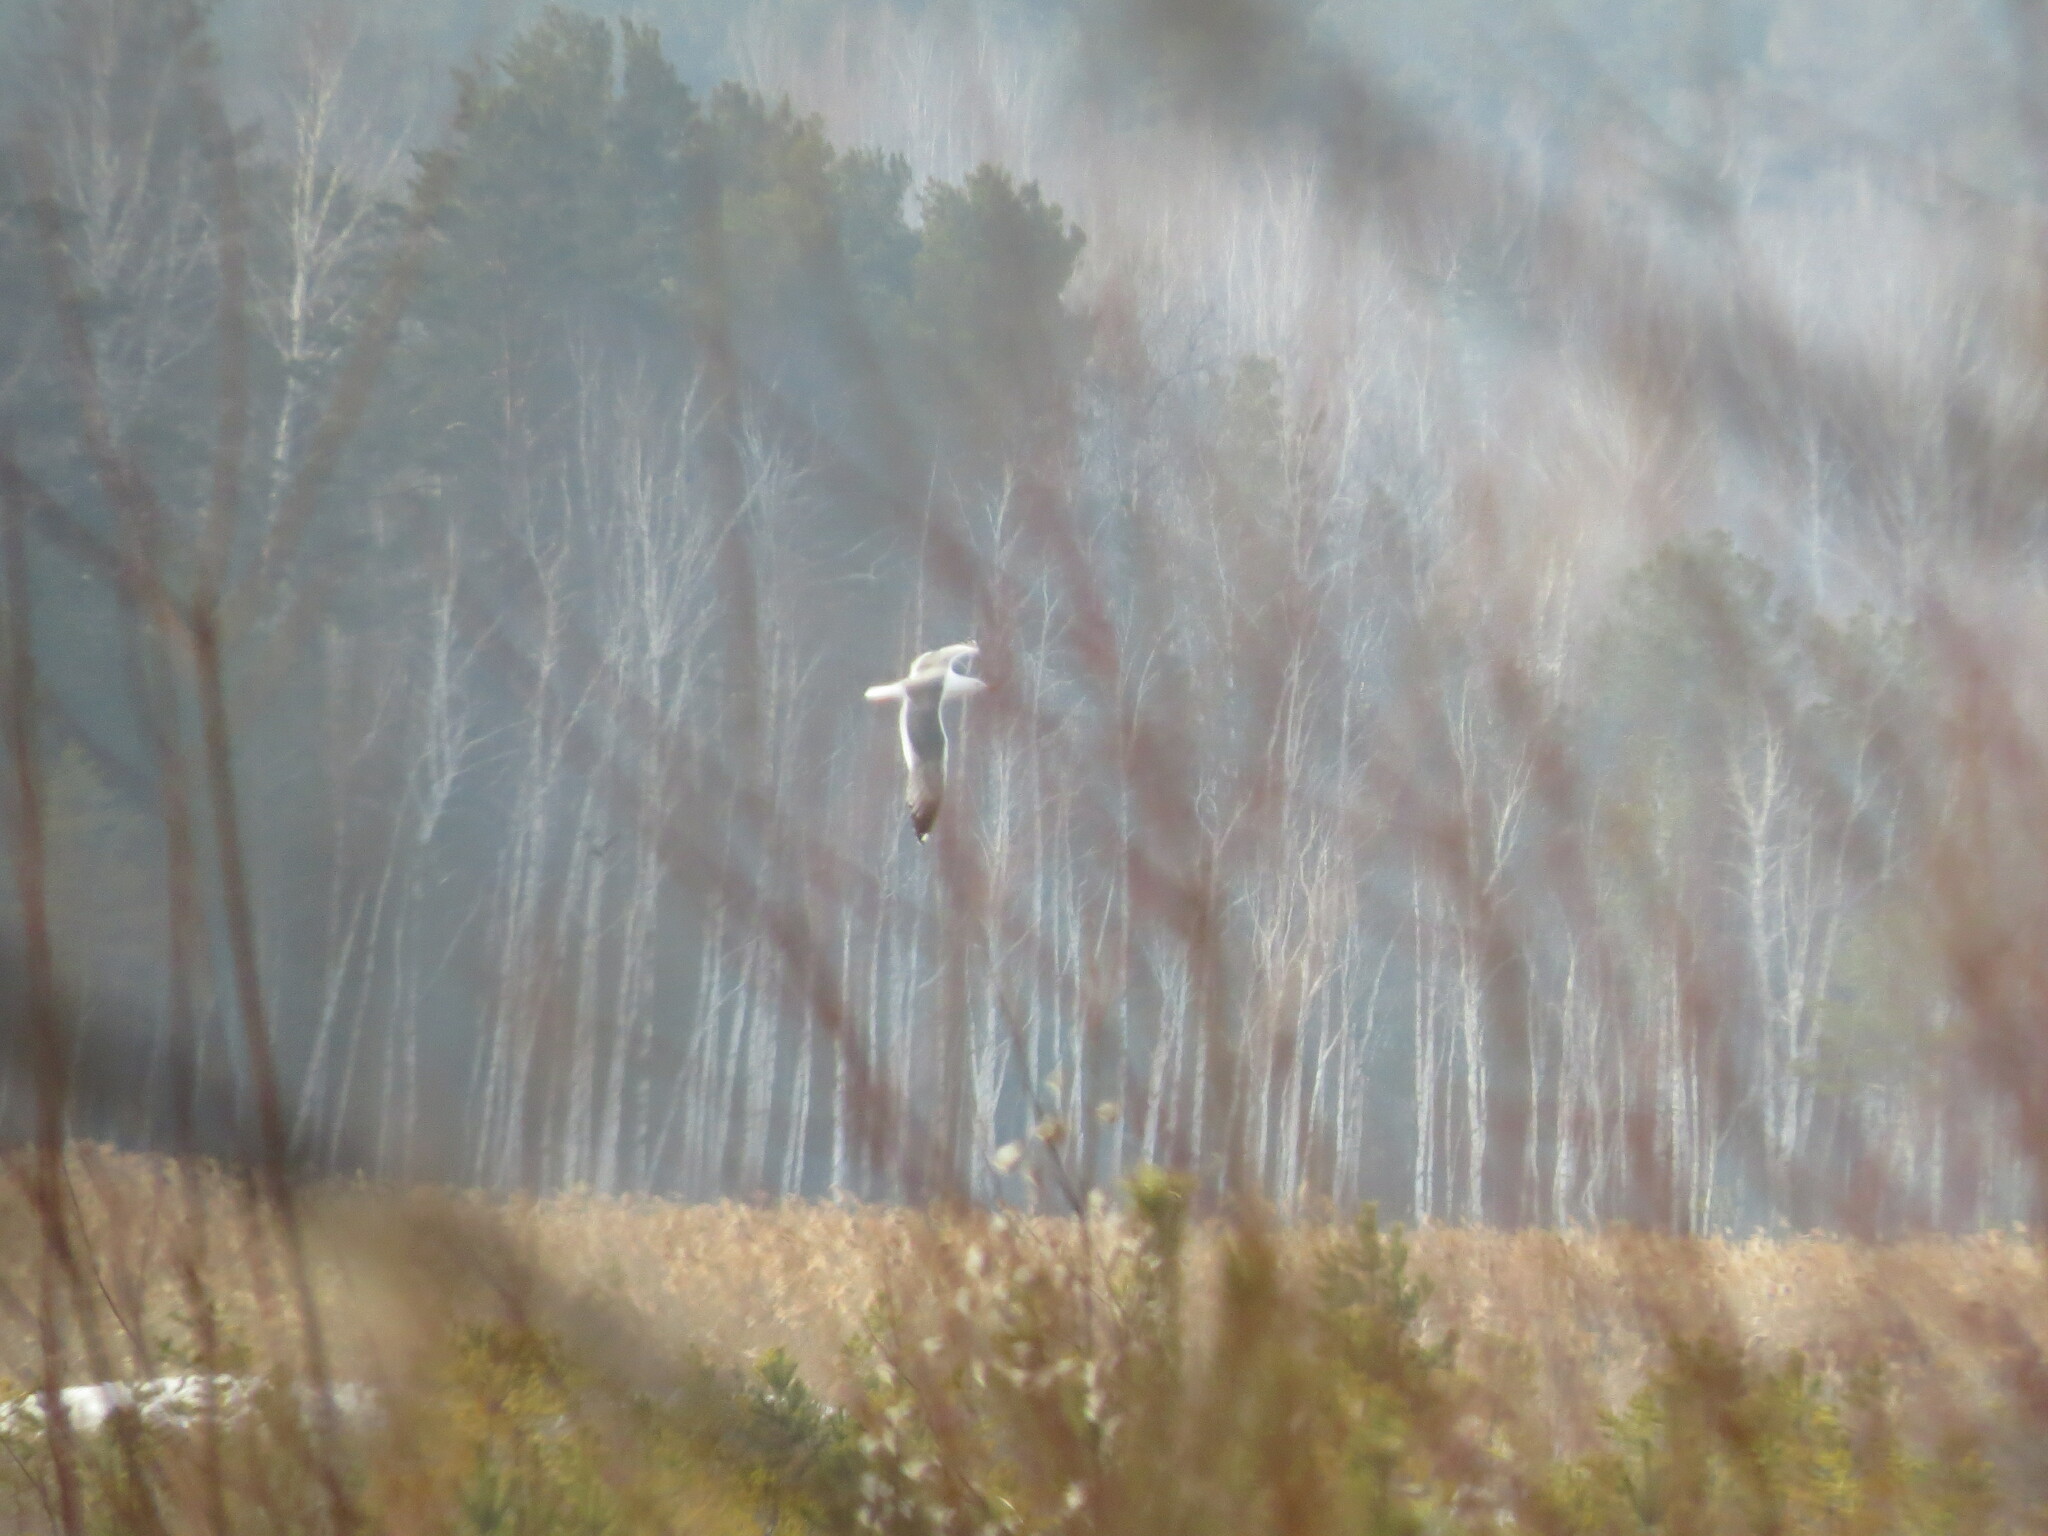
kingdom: Animalia
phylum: Chordata
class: Aves
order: Charadriiformes
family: Laridae
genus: Larus
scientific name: Larus fuscus
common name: Lesser black-backed gull
